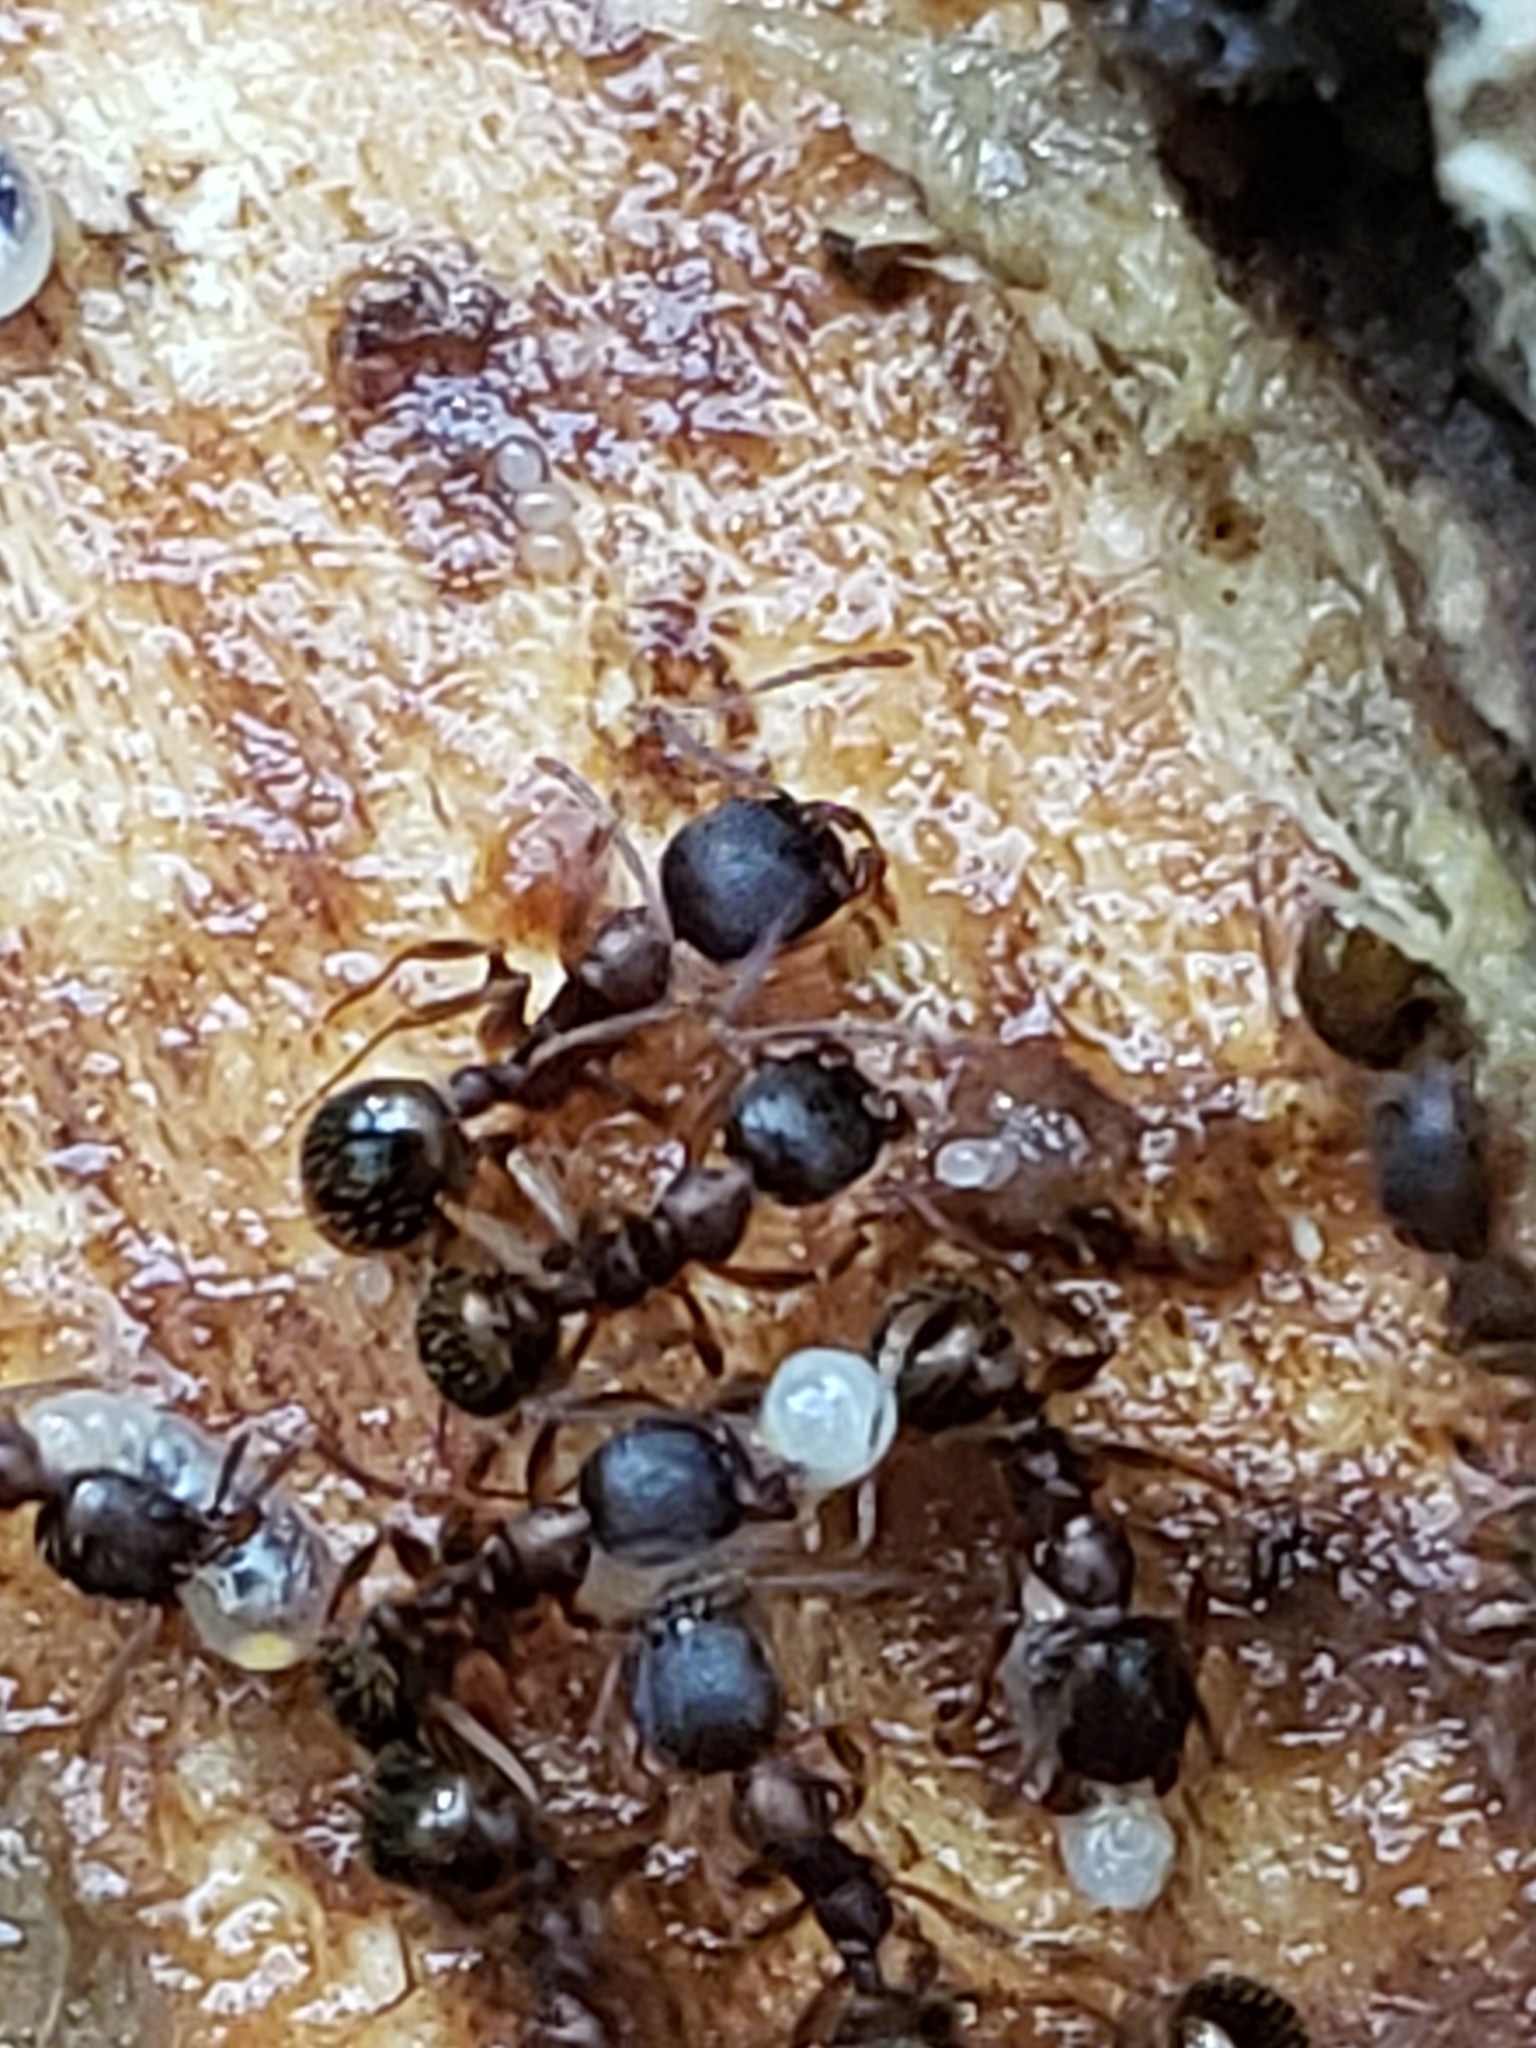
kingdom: Animalia
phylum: Arthropoda
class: Insecta
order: Hymenoptera
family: Formicidae
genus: Aphaenogaster
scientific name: Aphaenogaster rudis
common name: Winnow ant
